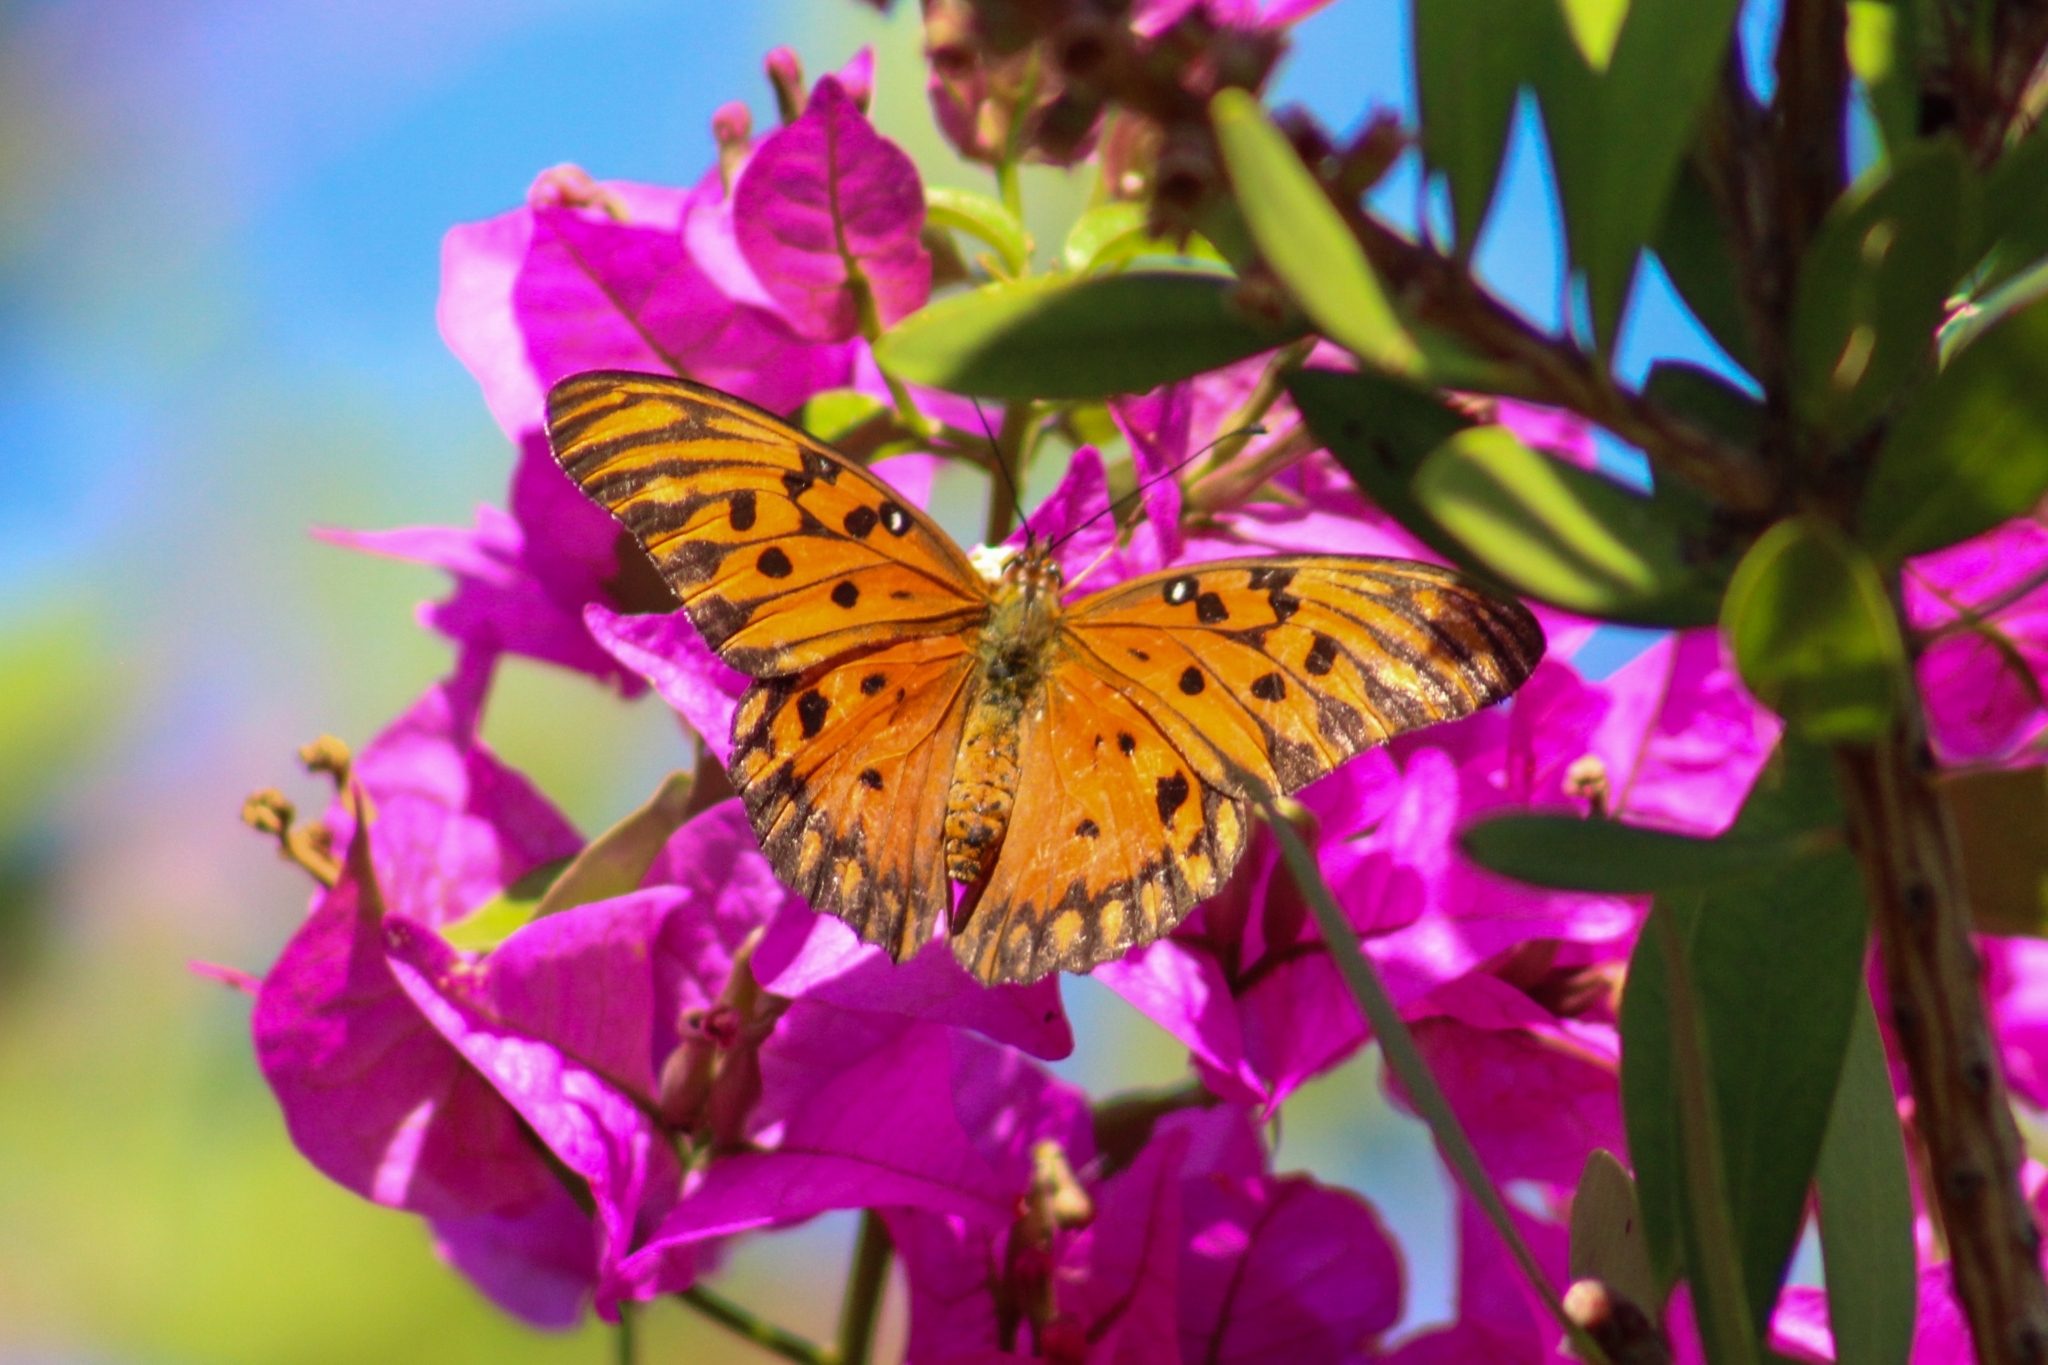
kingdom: Animalia
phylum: Arthropoda
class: Insecta
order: Lepidoptera
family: Nymphalidae
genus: Dione
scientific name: Dione vanillae
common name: Gulf fritillary
